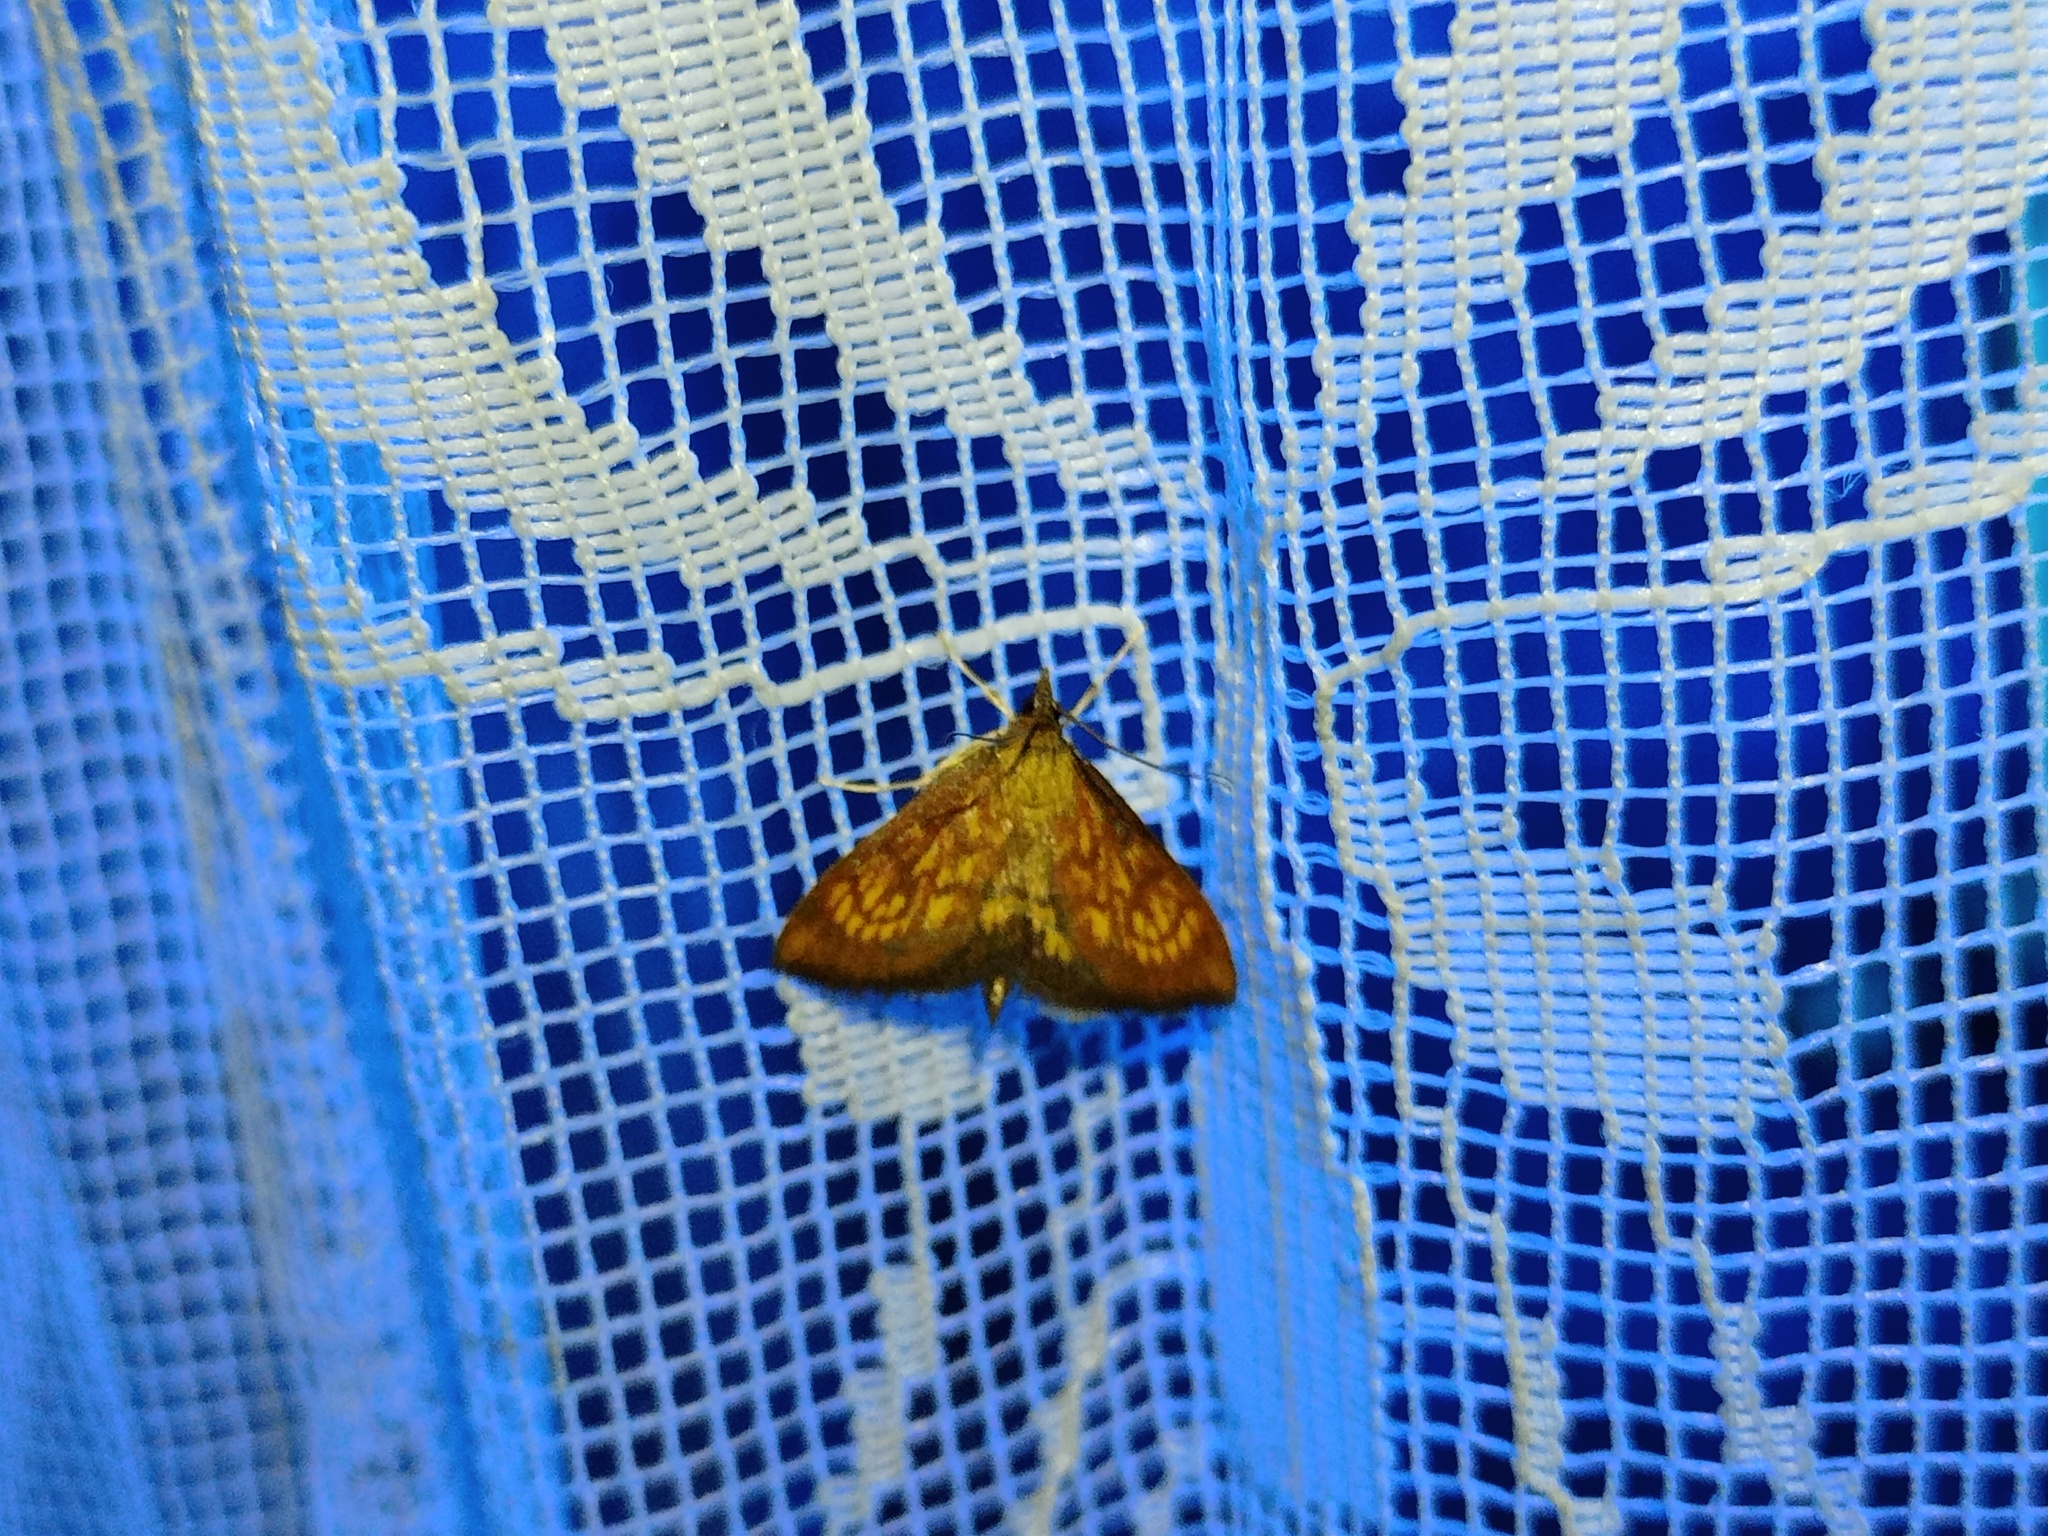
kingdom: Animalia
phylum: Arthropoda
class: Insecta
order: Lepidoptera
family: Crambidae
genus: Ecpyrrhorrhoe
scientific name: Ecpyrrhorrhoe rubiginalis
